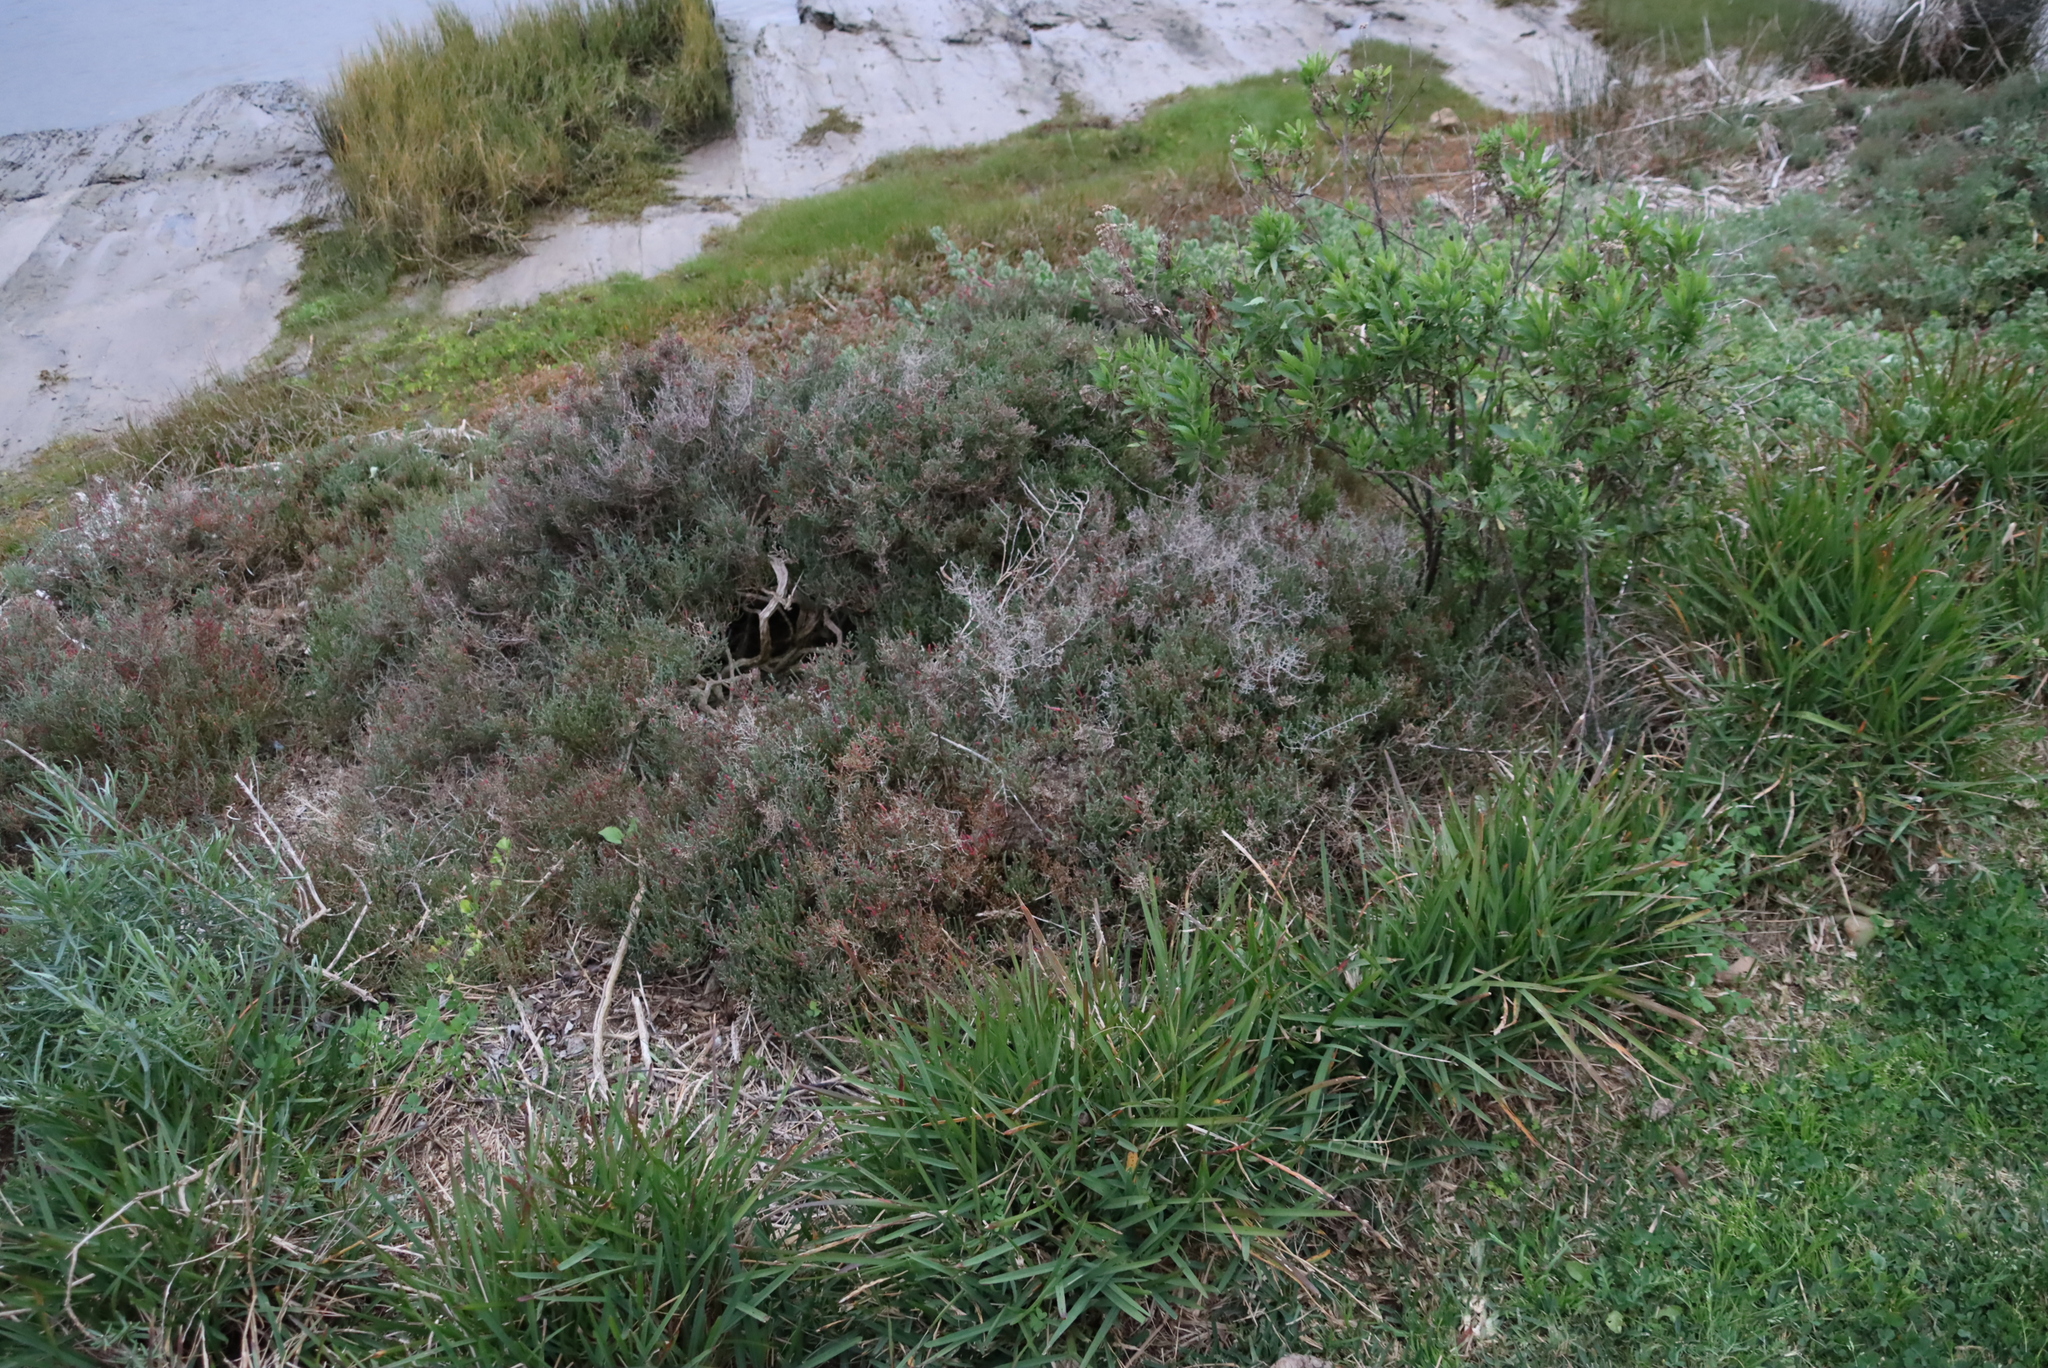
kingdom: Plantae
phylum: Tracheophyta
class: Magnoliopsida
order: Caryophyllales
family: Amaranthaceae
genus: Salicornia
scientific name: Salicornia pillansii
